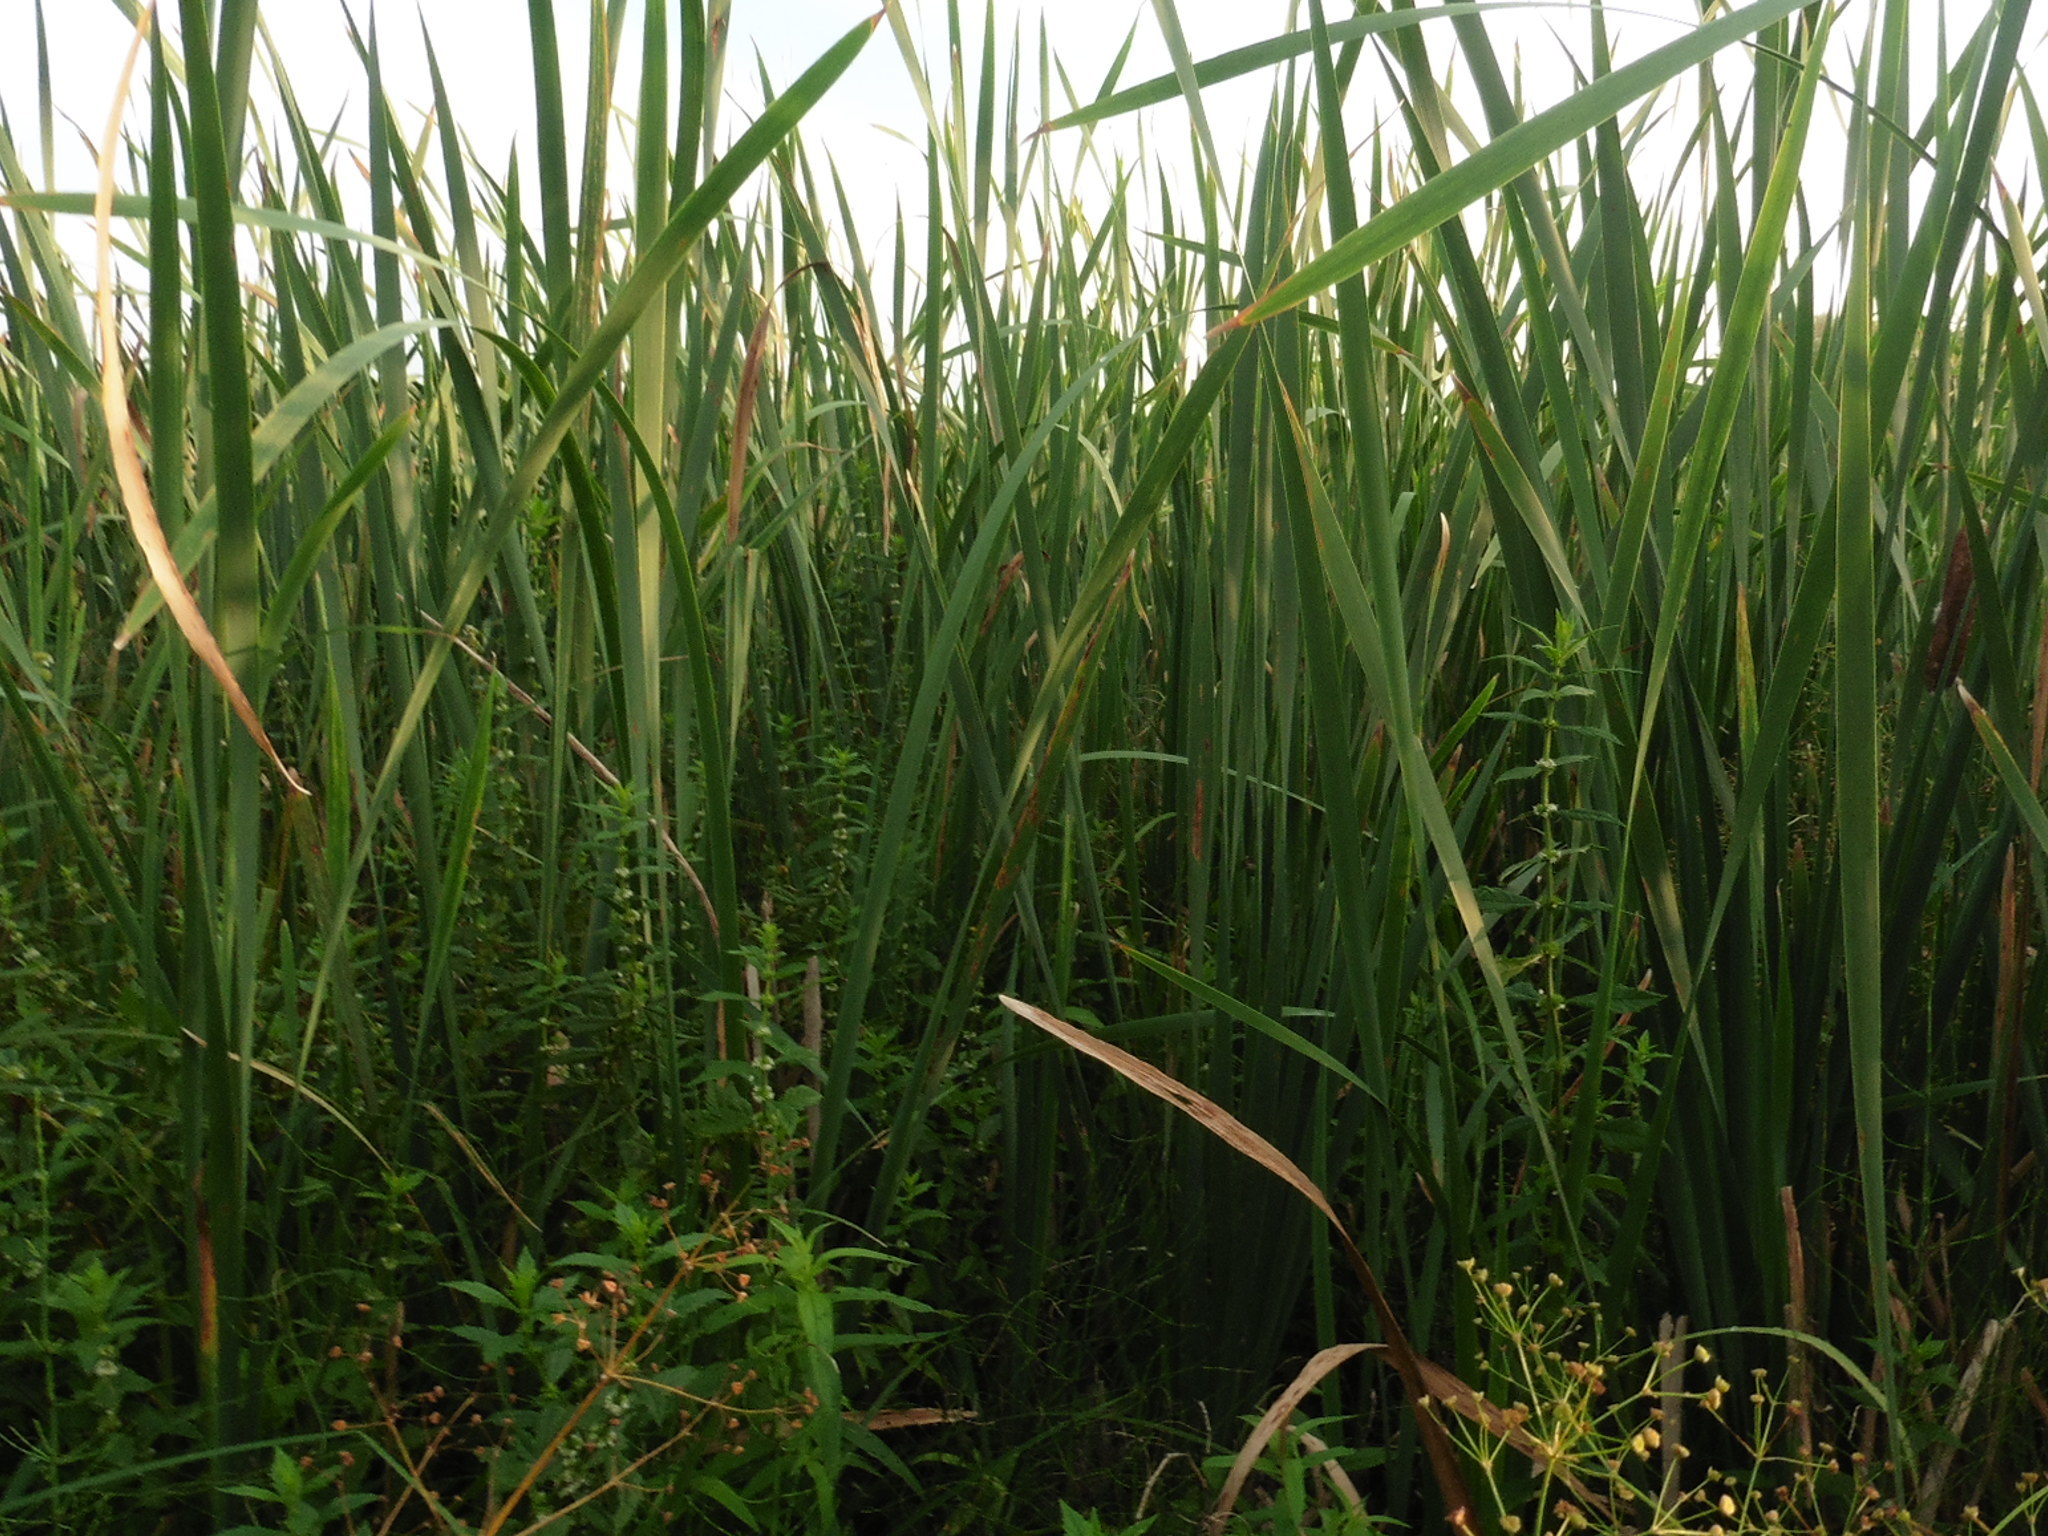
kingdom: Plantae
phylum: Tracheophyta
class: Liliopsida
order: Poales
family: Typhaceae
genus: Typha
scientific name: Typha latifolia
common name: Broadleaf cattail
